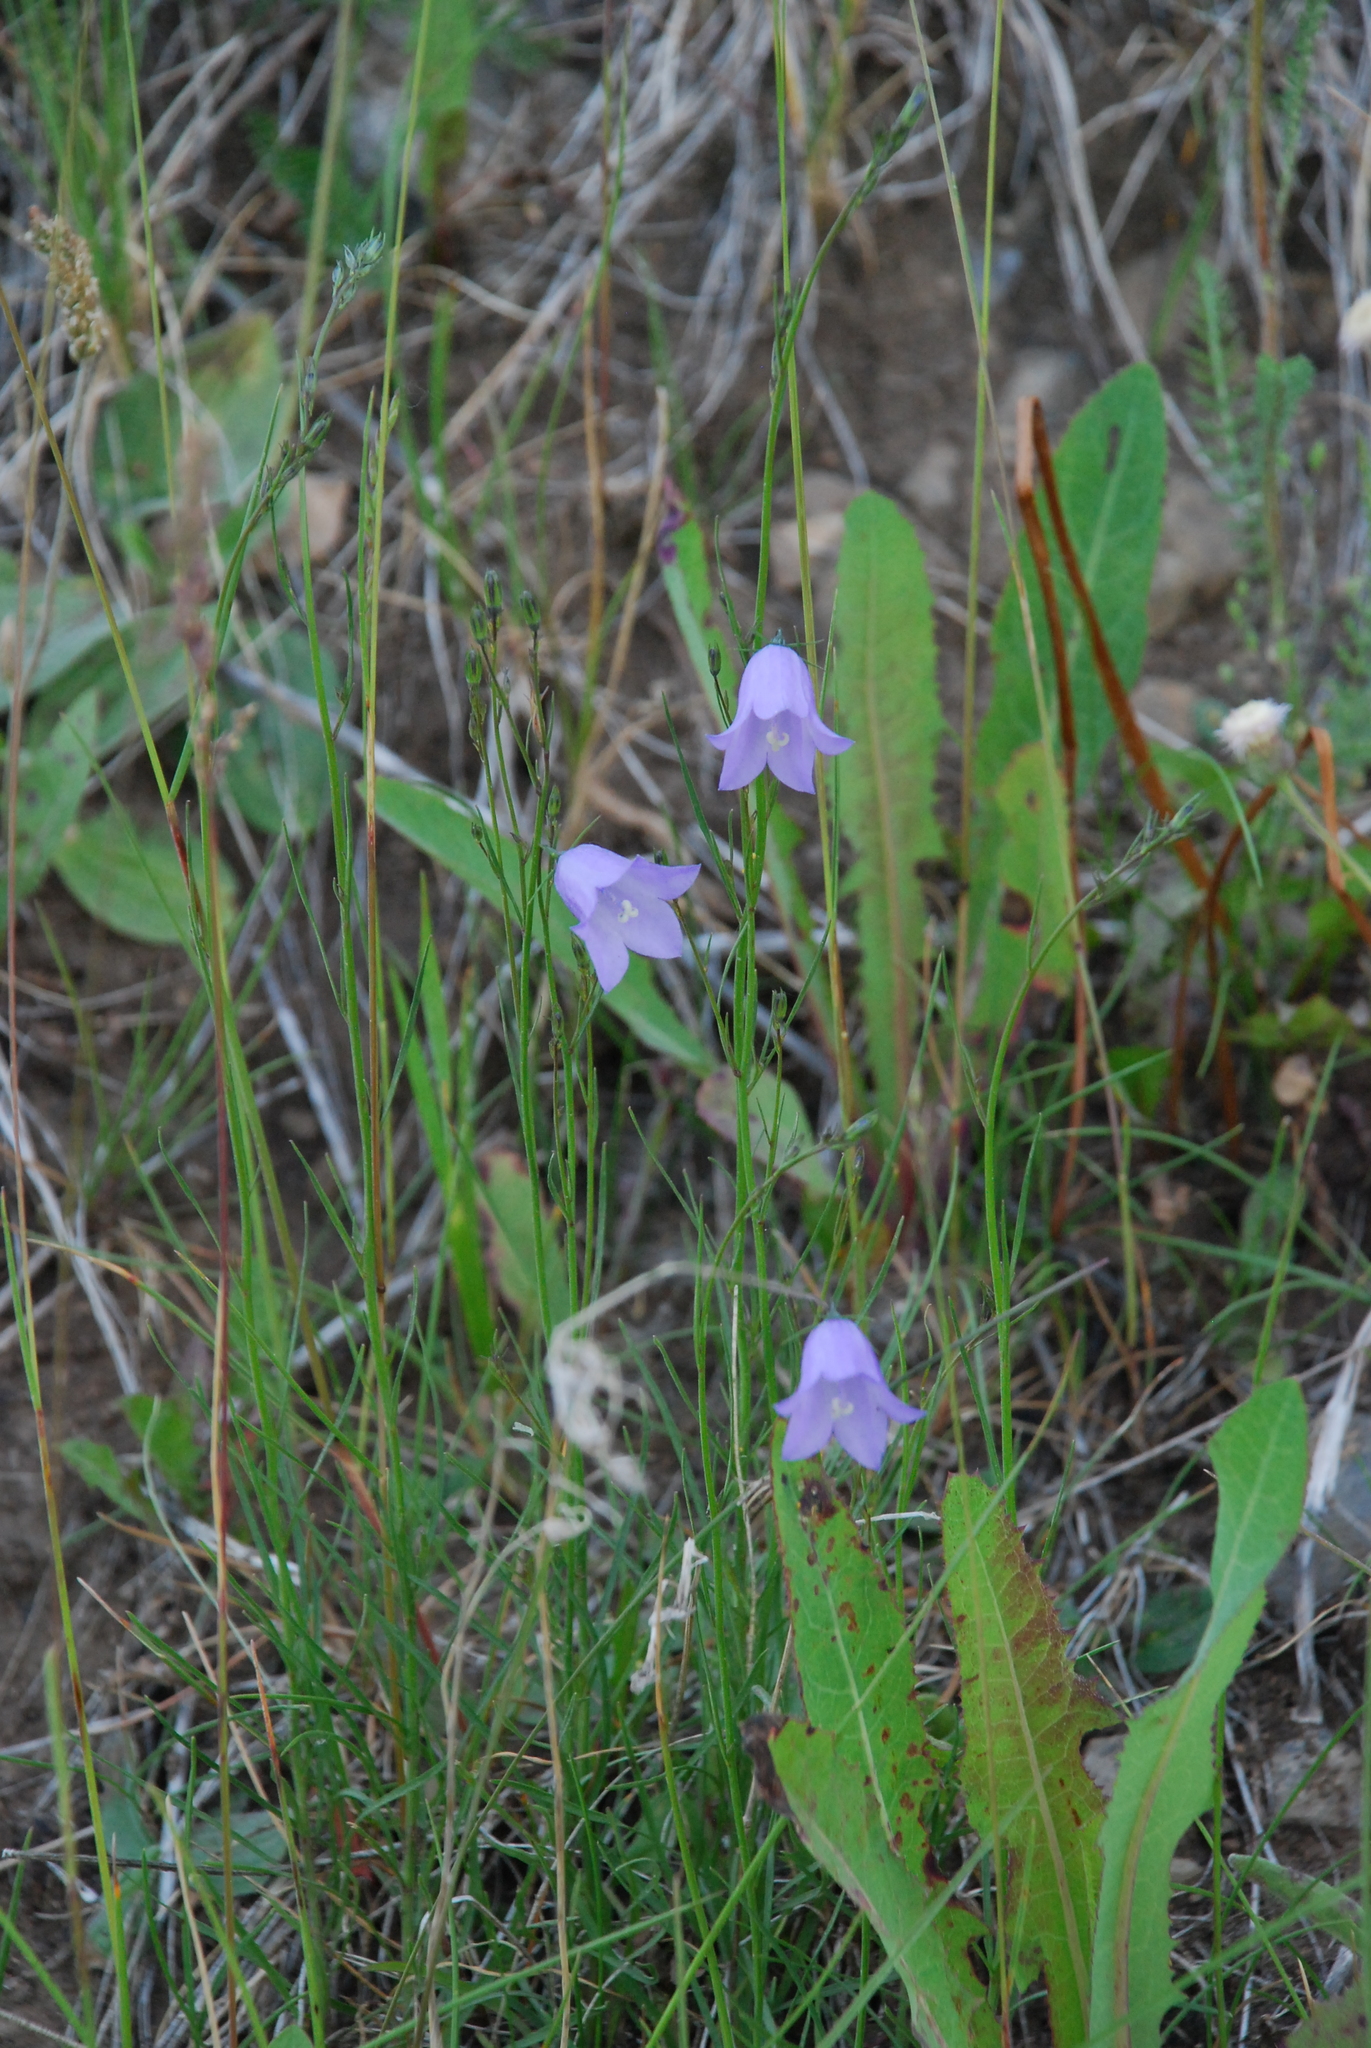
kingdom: Plantae
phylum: Tracheophyta
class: Magnoliopsida
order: Asterales
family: Campanulaceae
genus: Campanula
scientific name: Campanula rotundifolia
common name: Harebell
